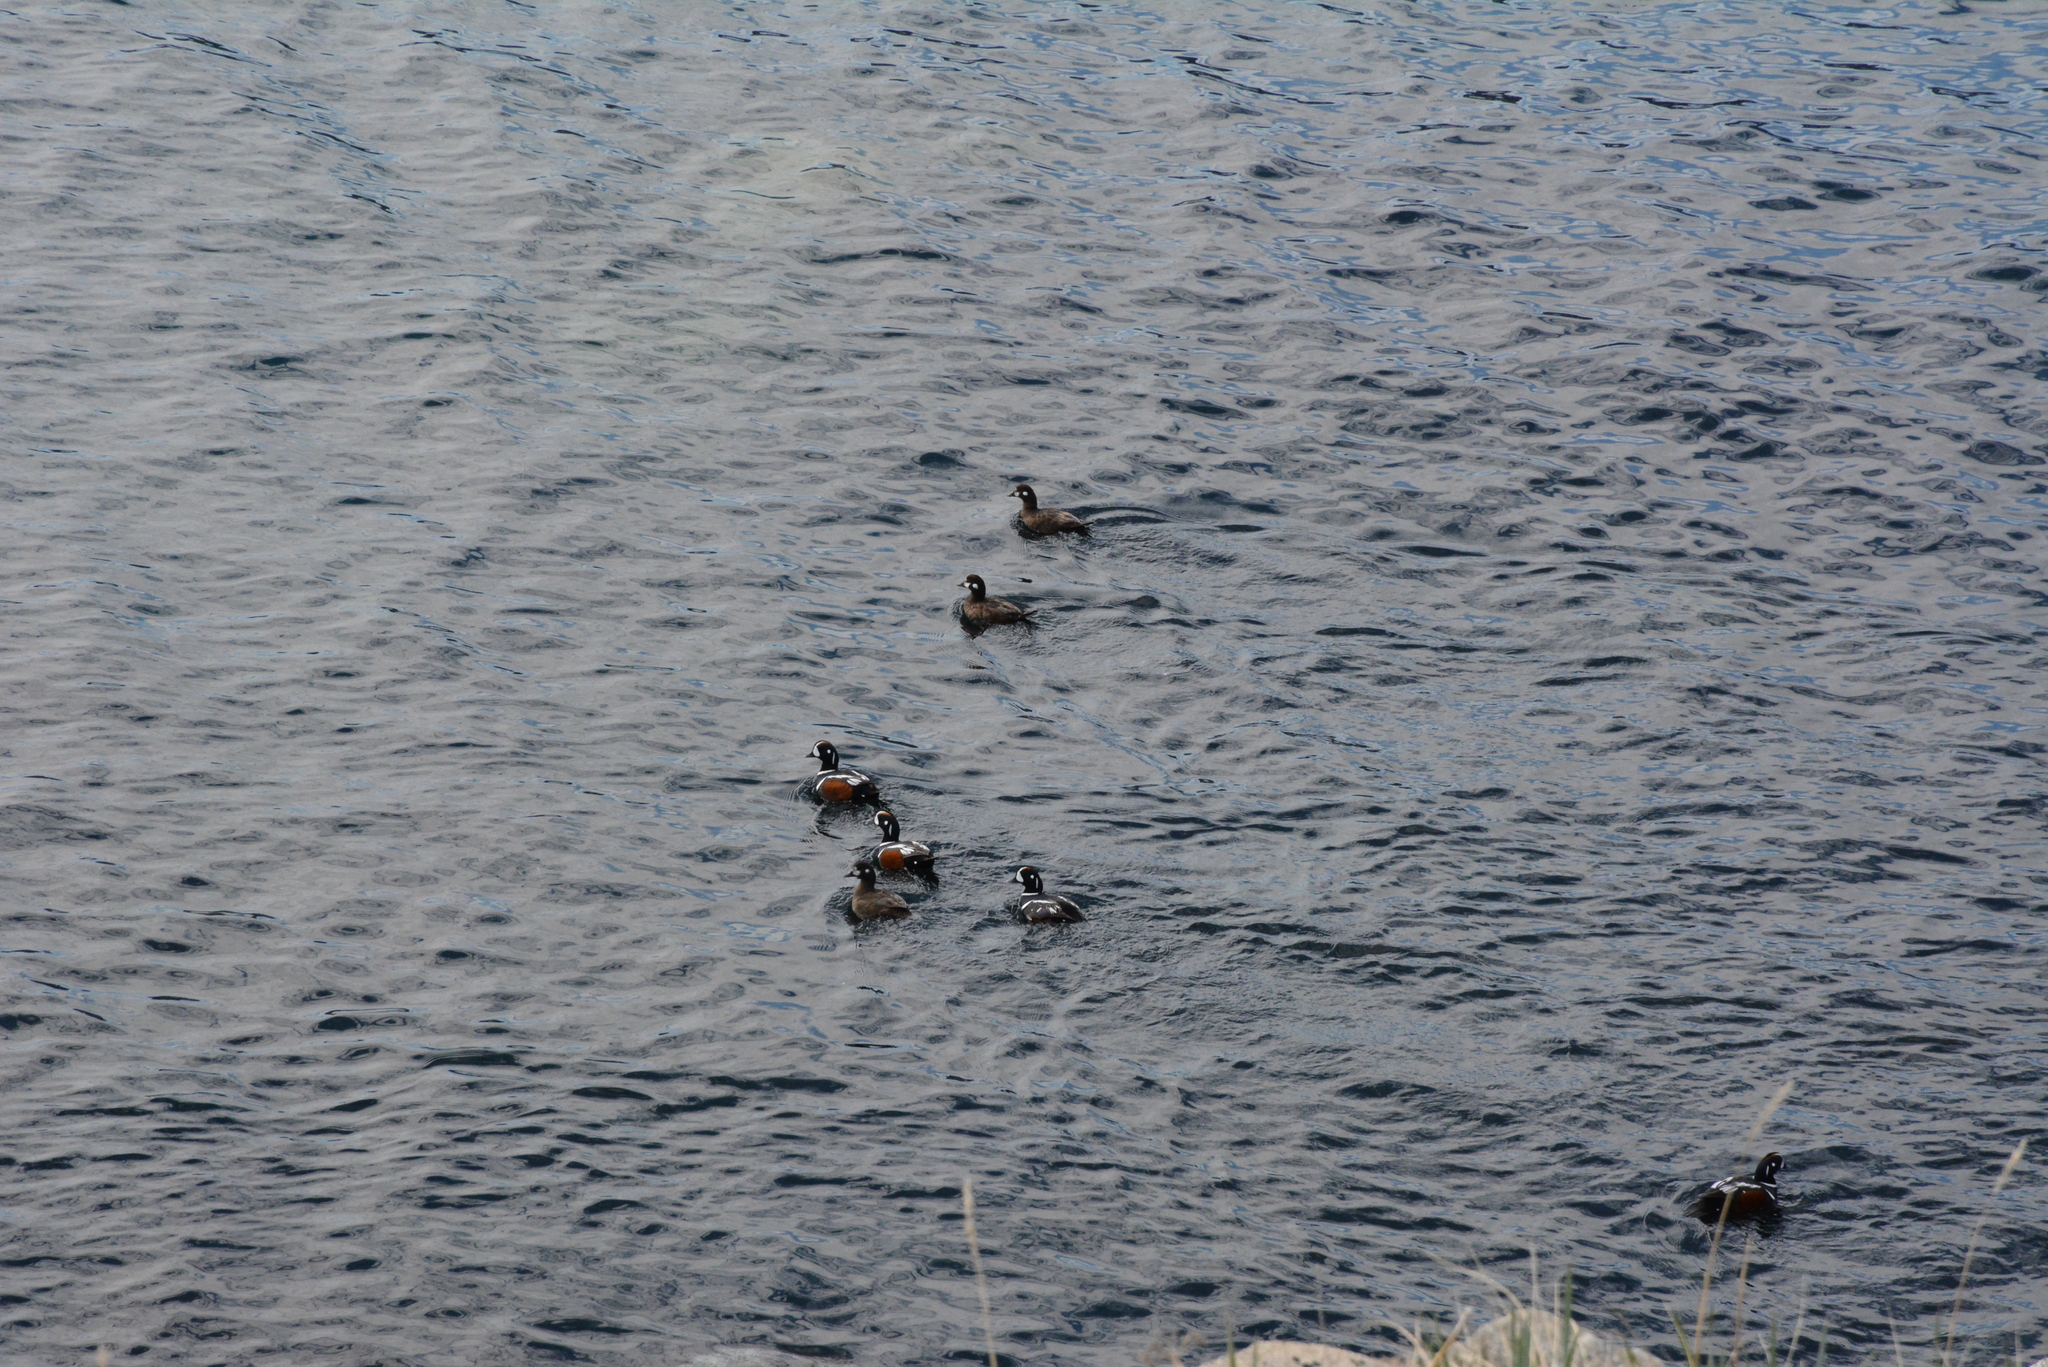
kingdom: Animalia
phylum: Chordata
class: Aves
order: Anseriformes
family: Anatidae
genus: Histrionicus
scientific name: Histrionicus histrionicus
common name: Harlequin duck
